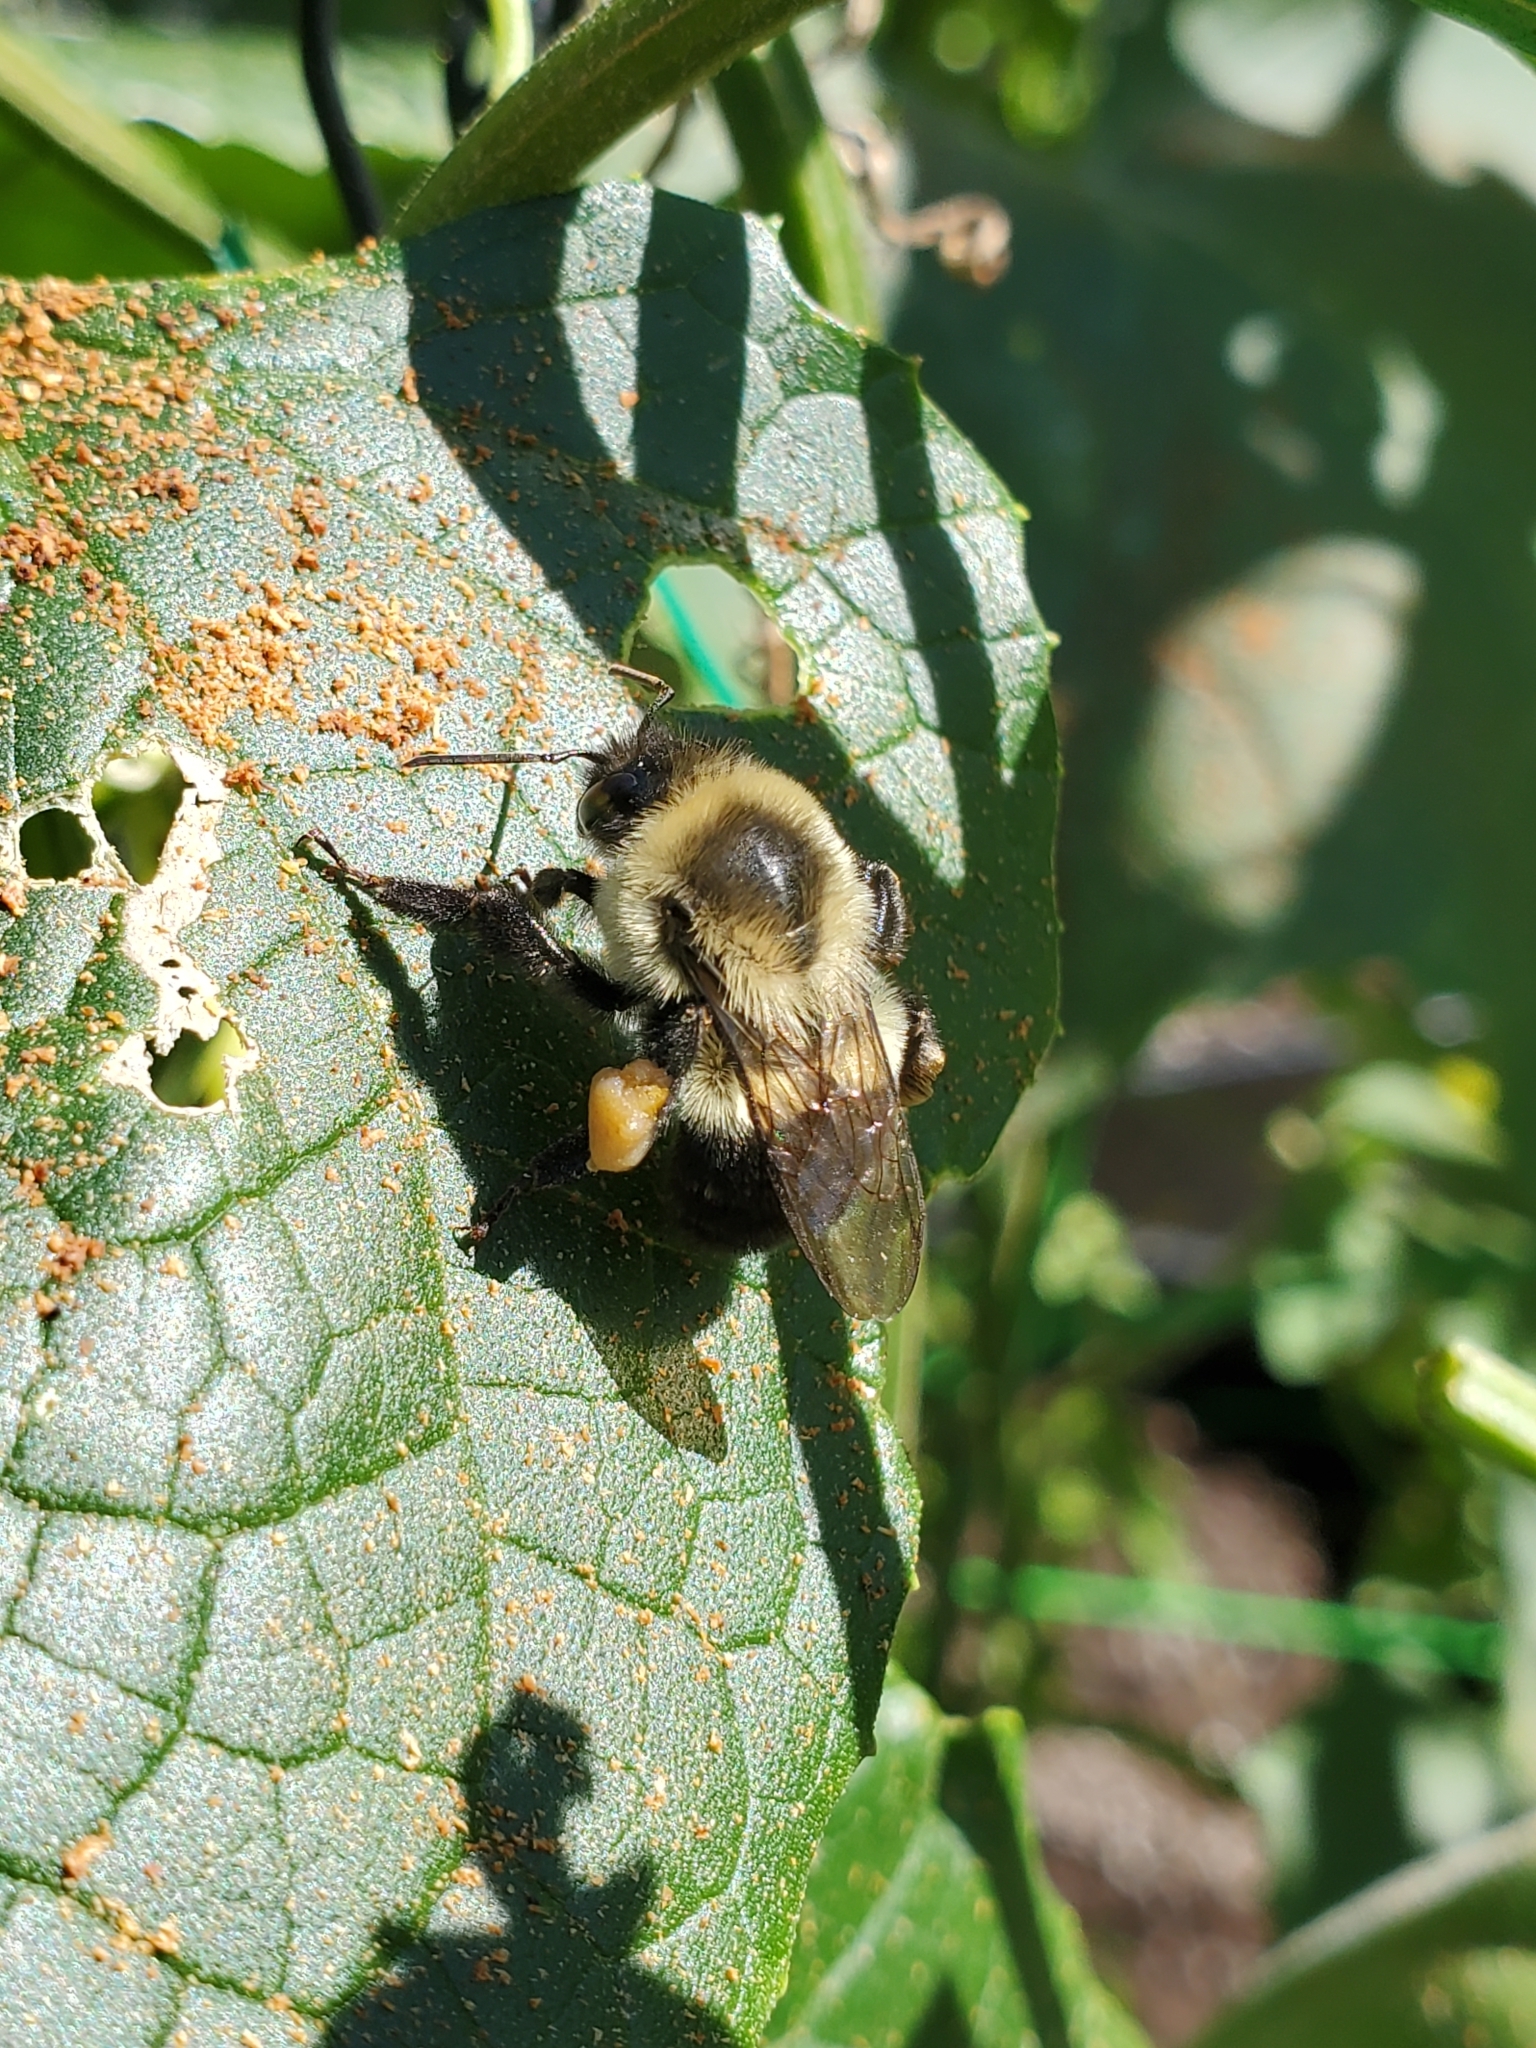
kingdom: Animalia
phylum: Arthropoda
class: Insecta
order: Hymenoptera
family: Apidae
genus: Bombus
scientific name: Bombus impatiens
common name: Common eastern bumble bee
